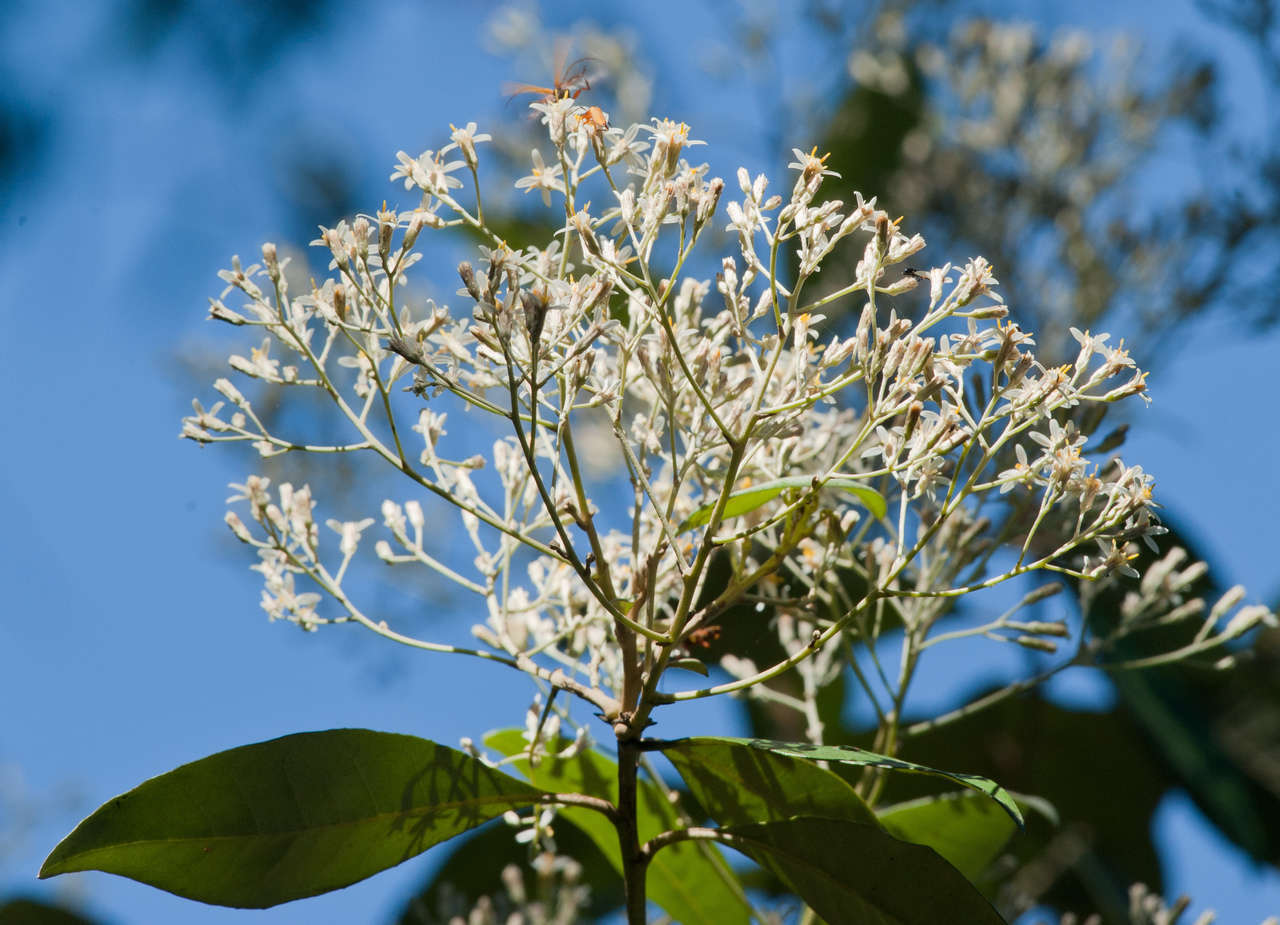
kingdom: Plantae
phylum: Tracheophyta
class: Magnoliopsida
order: Asterales
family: Asteraceae
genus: Olearia
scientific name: Olearia argophylla
